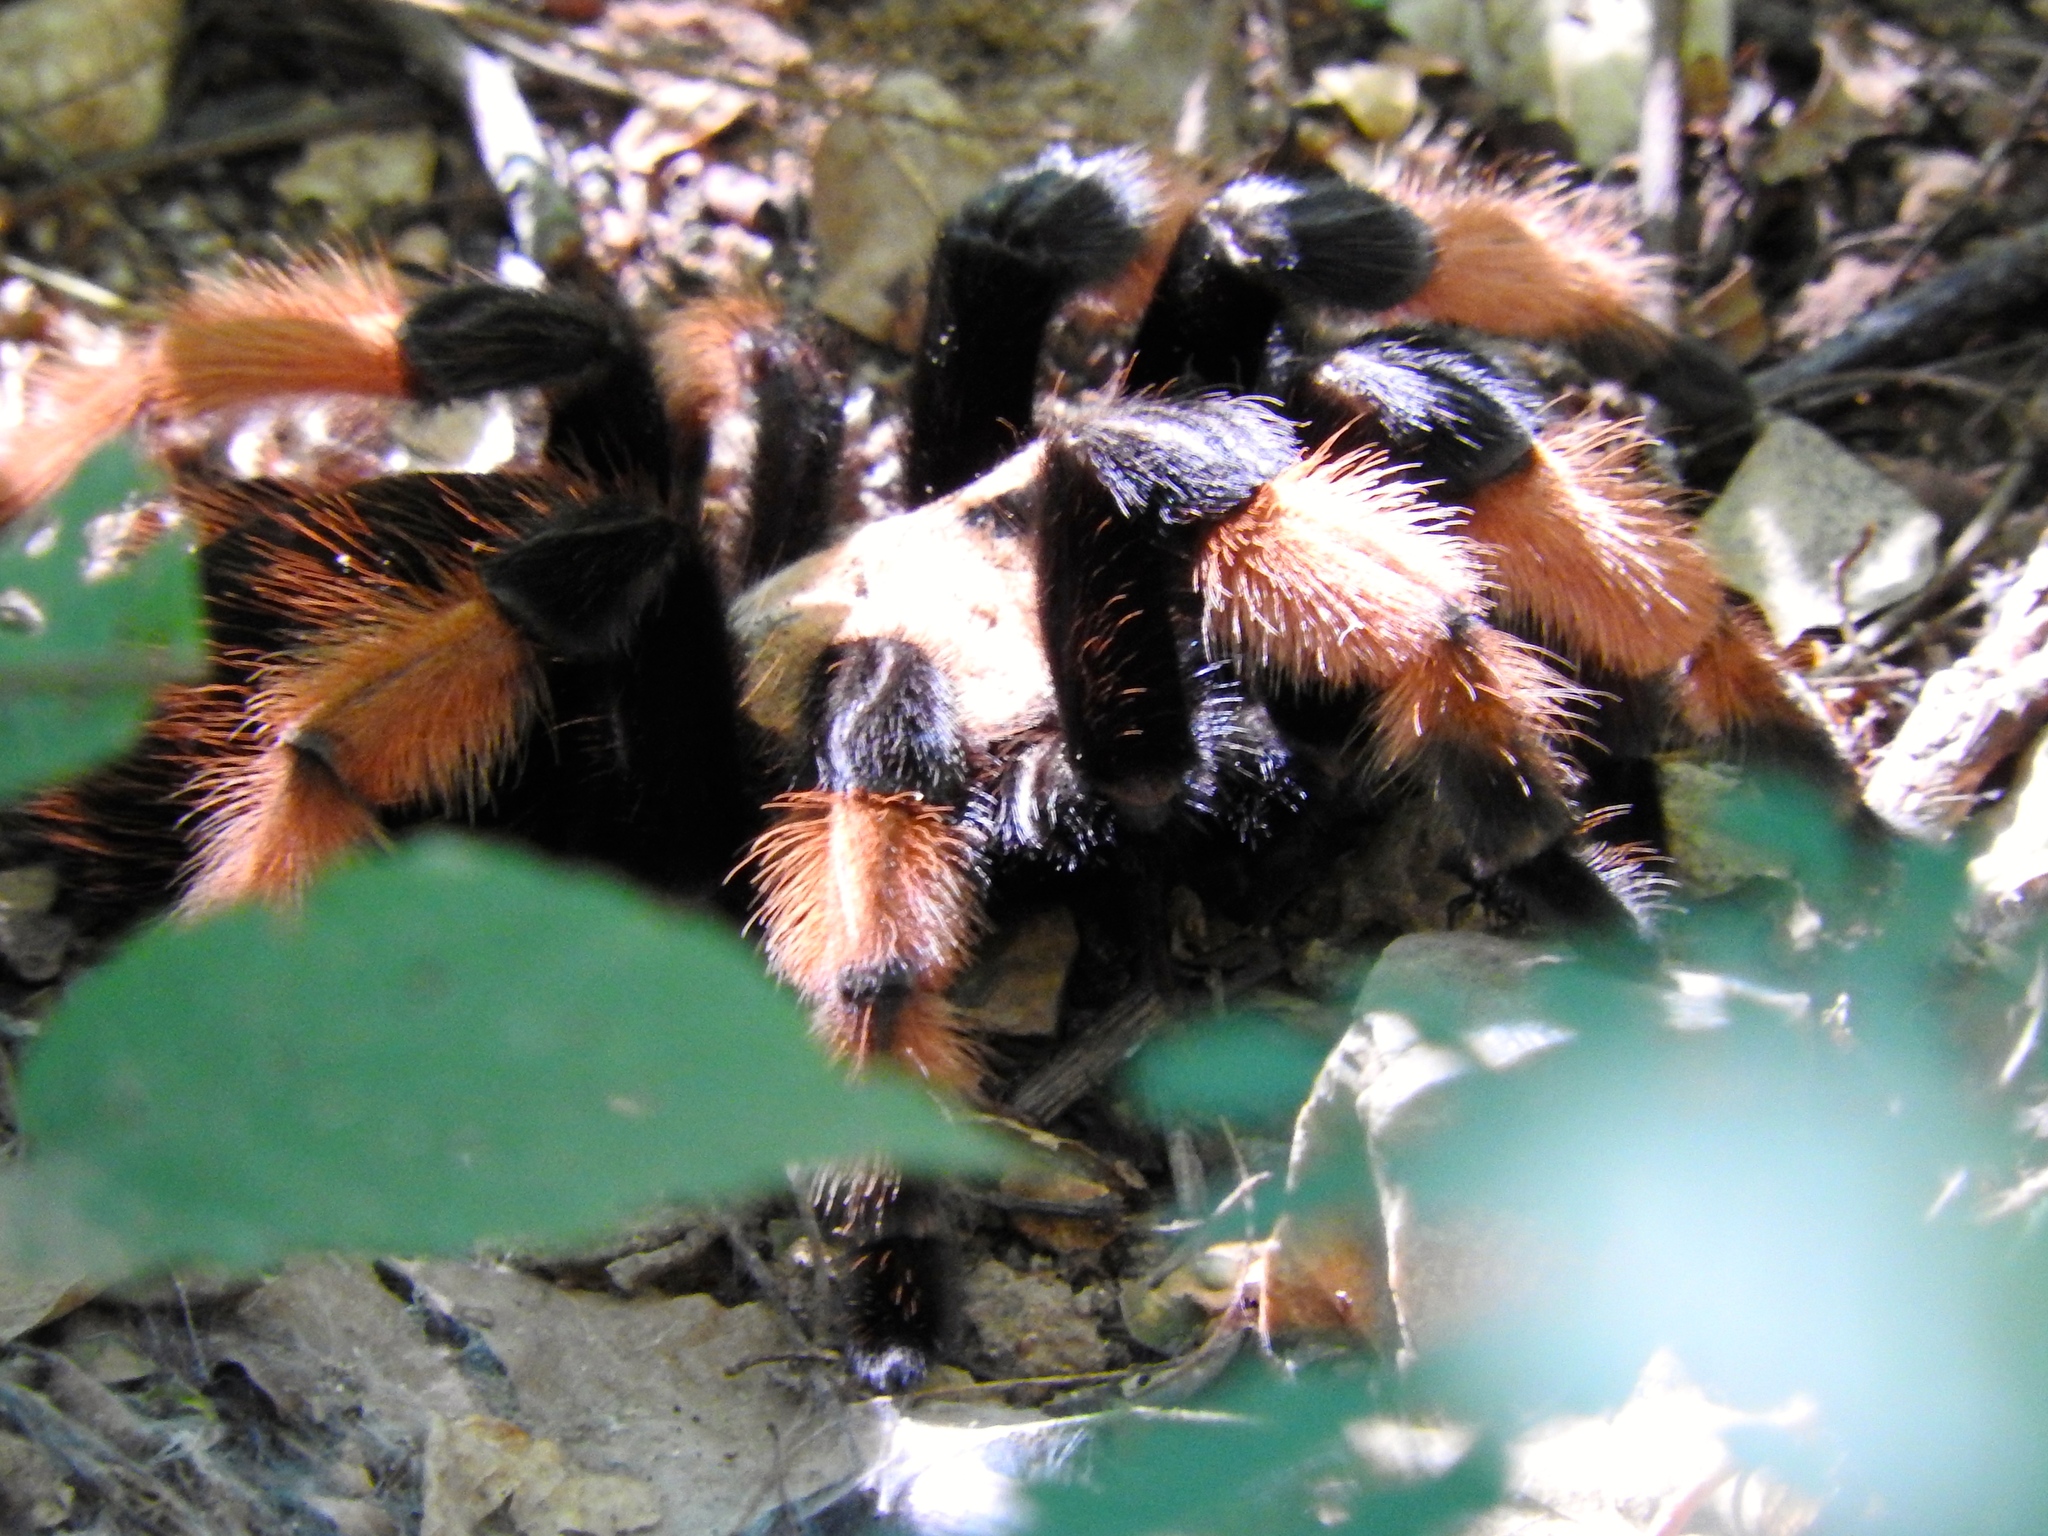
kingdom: Animalia
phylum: Arthropoda
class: Arachnida
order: Araneae
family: Theraphosidae
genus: Brachypelma
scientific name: Brachypelma emilia
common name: Mexican redleg
